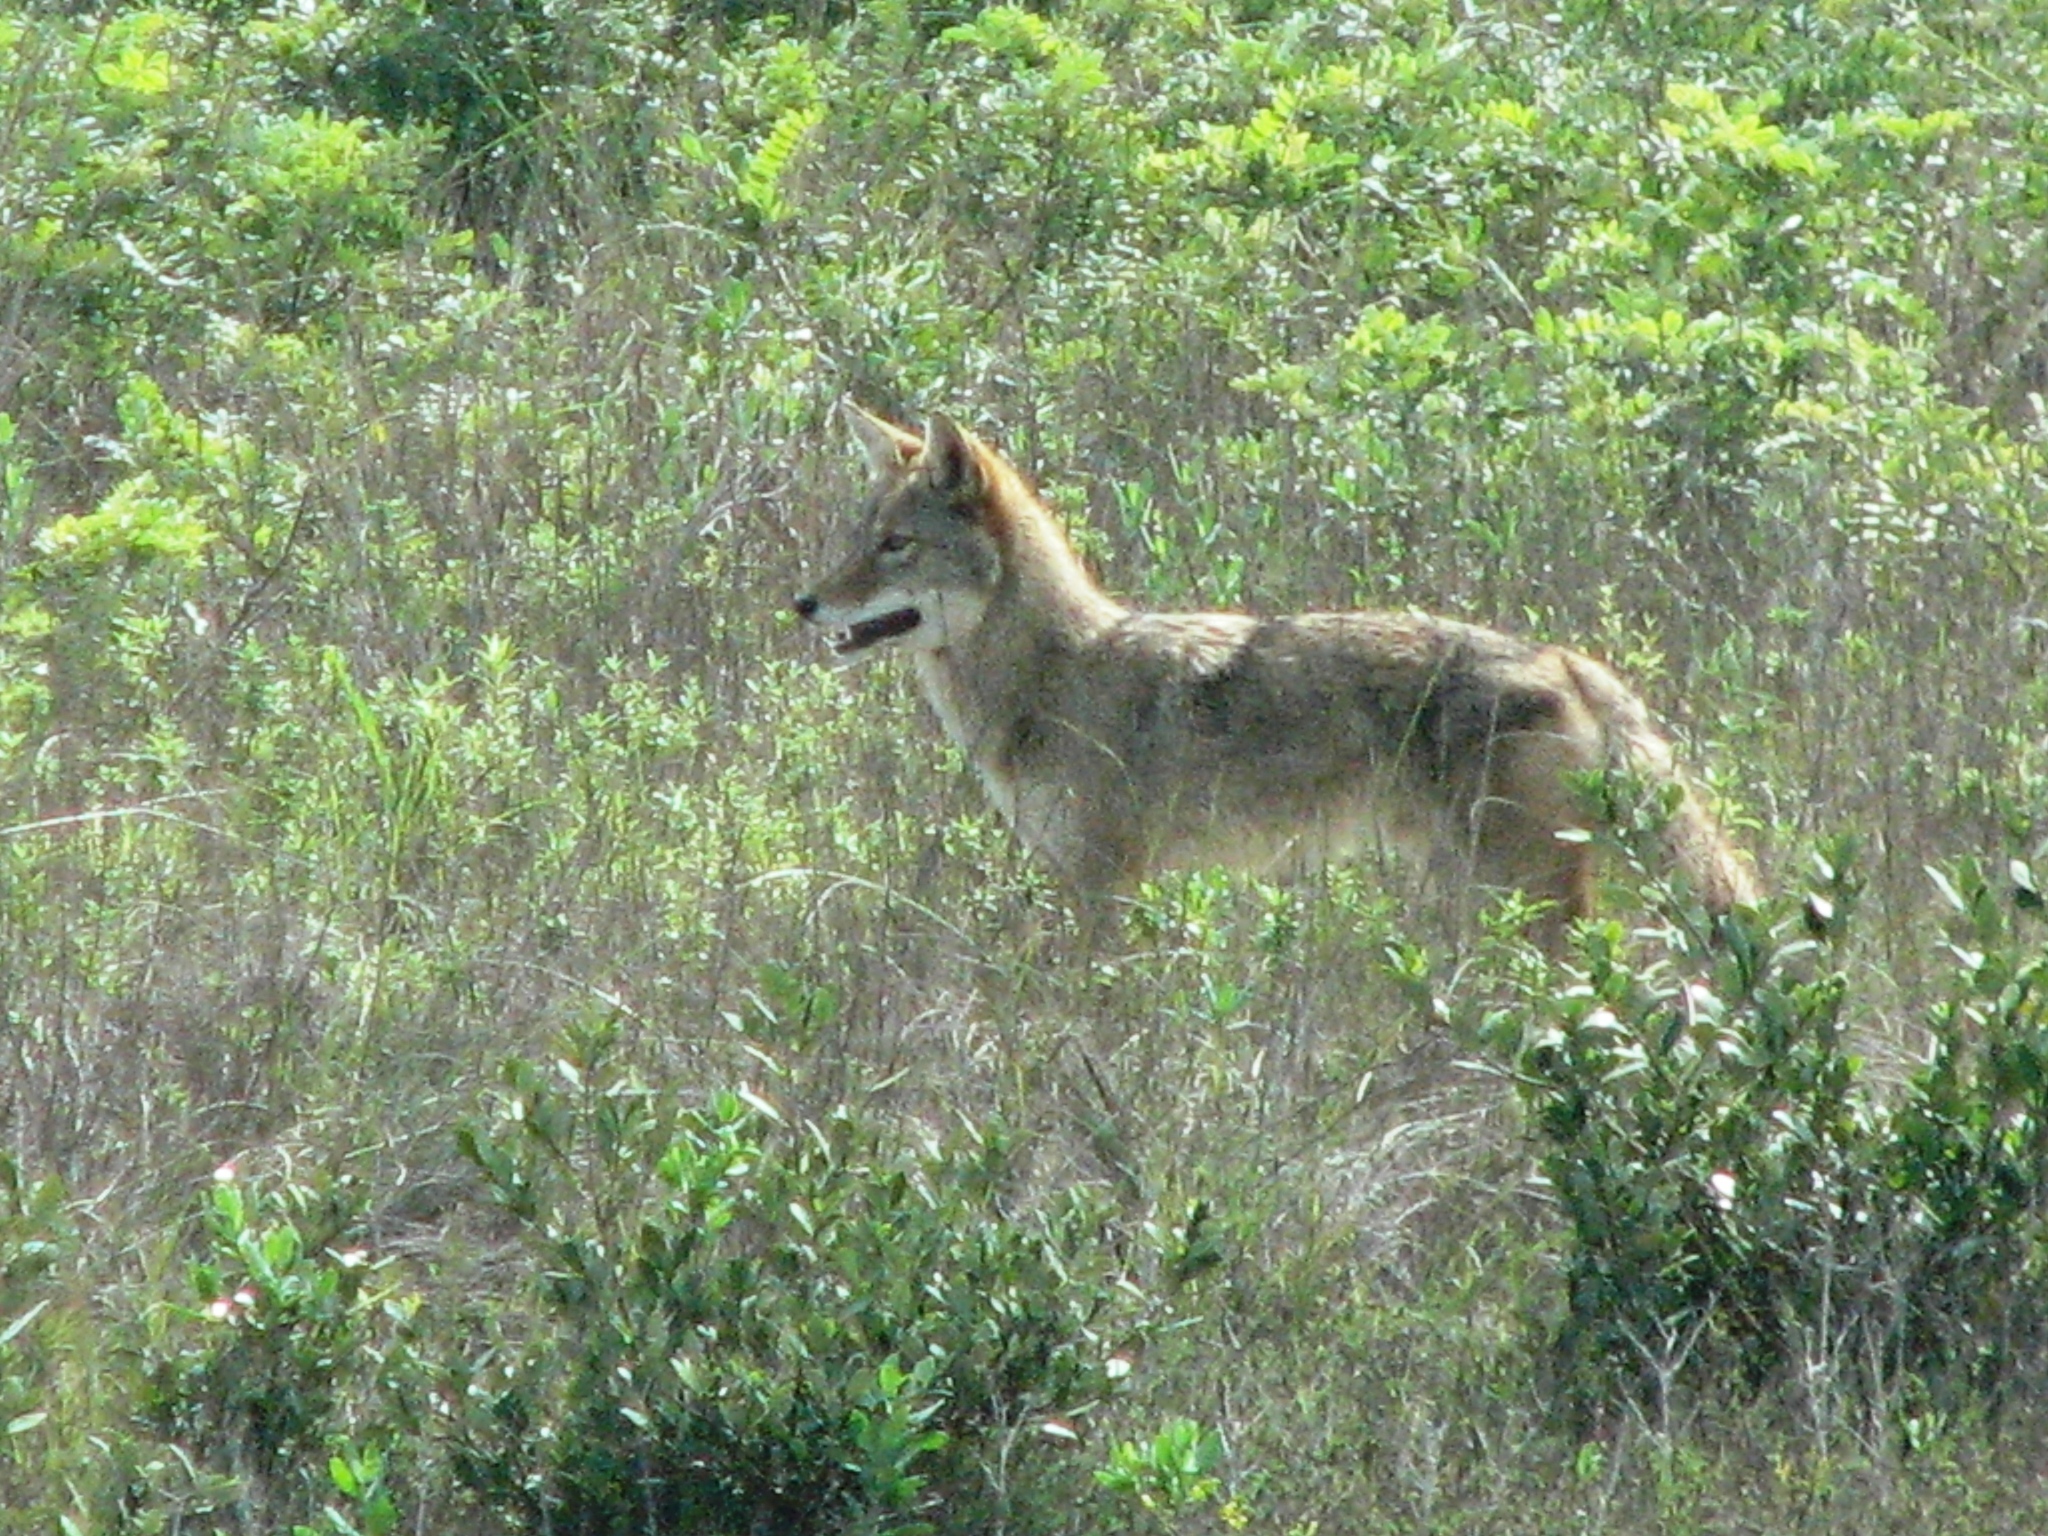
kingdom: Animalia
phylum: Chordata
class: Mammalia
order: Carnivora
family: Canidae
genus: Canis
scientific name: Canis latrans
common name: Coyote
